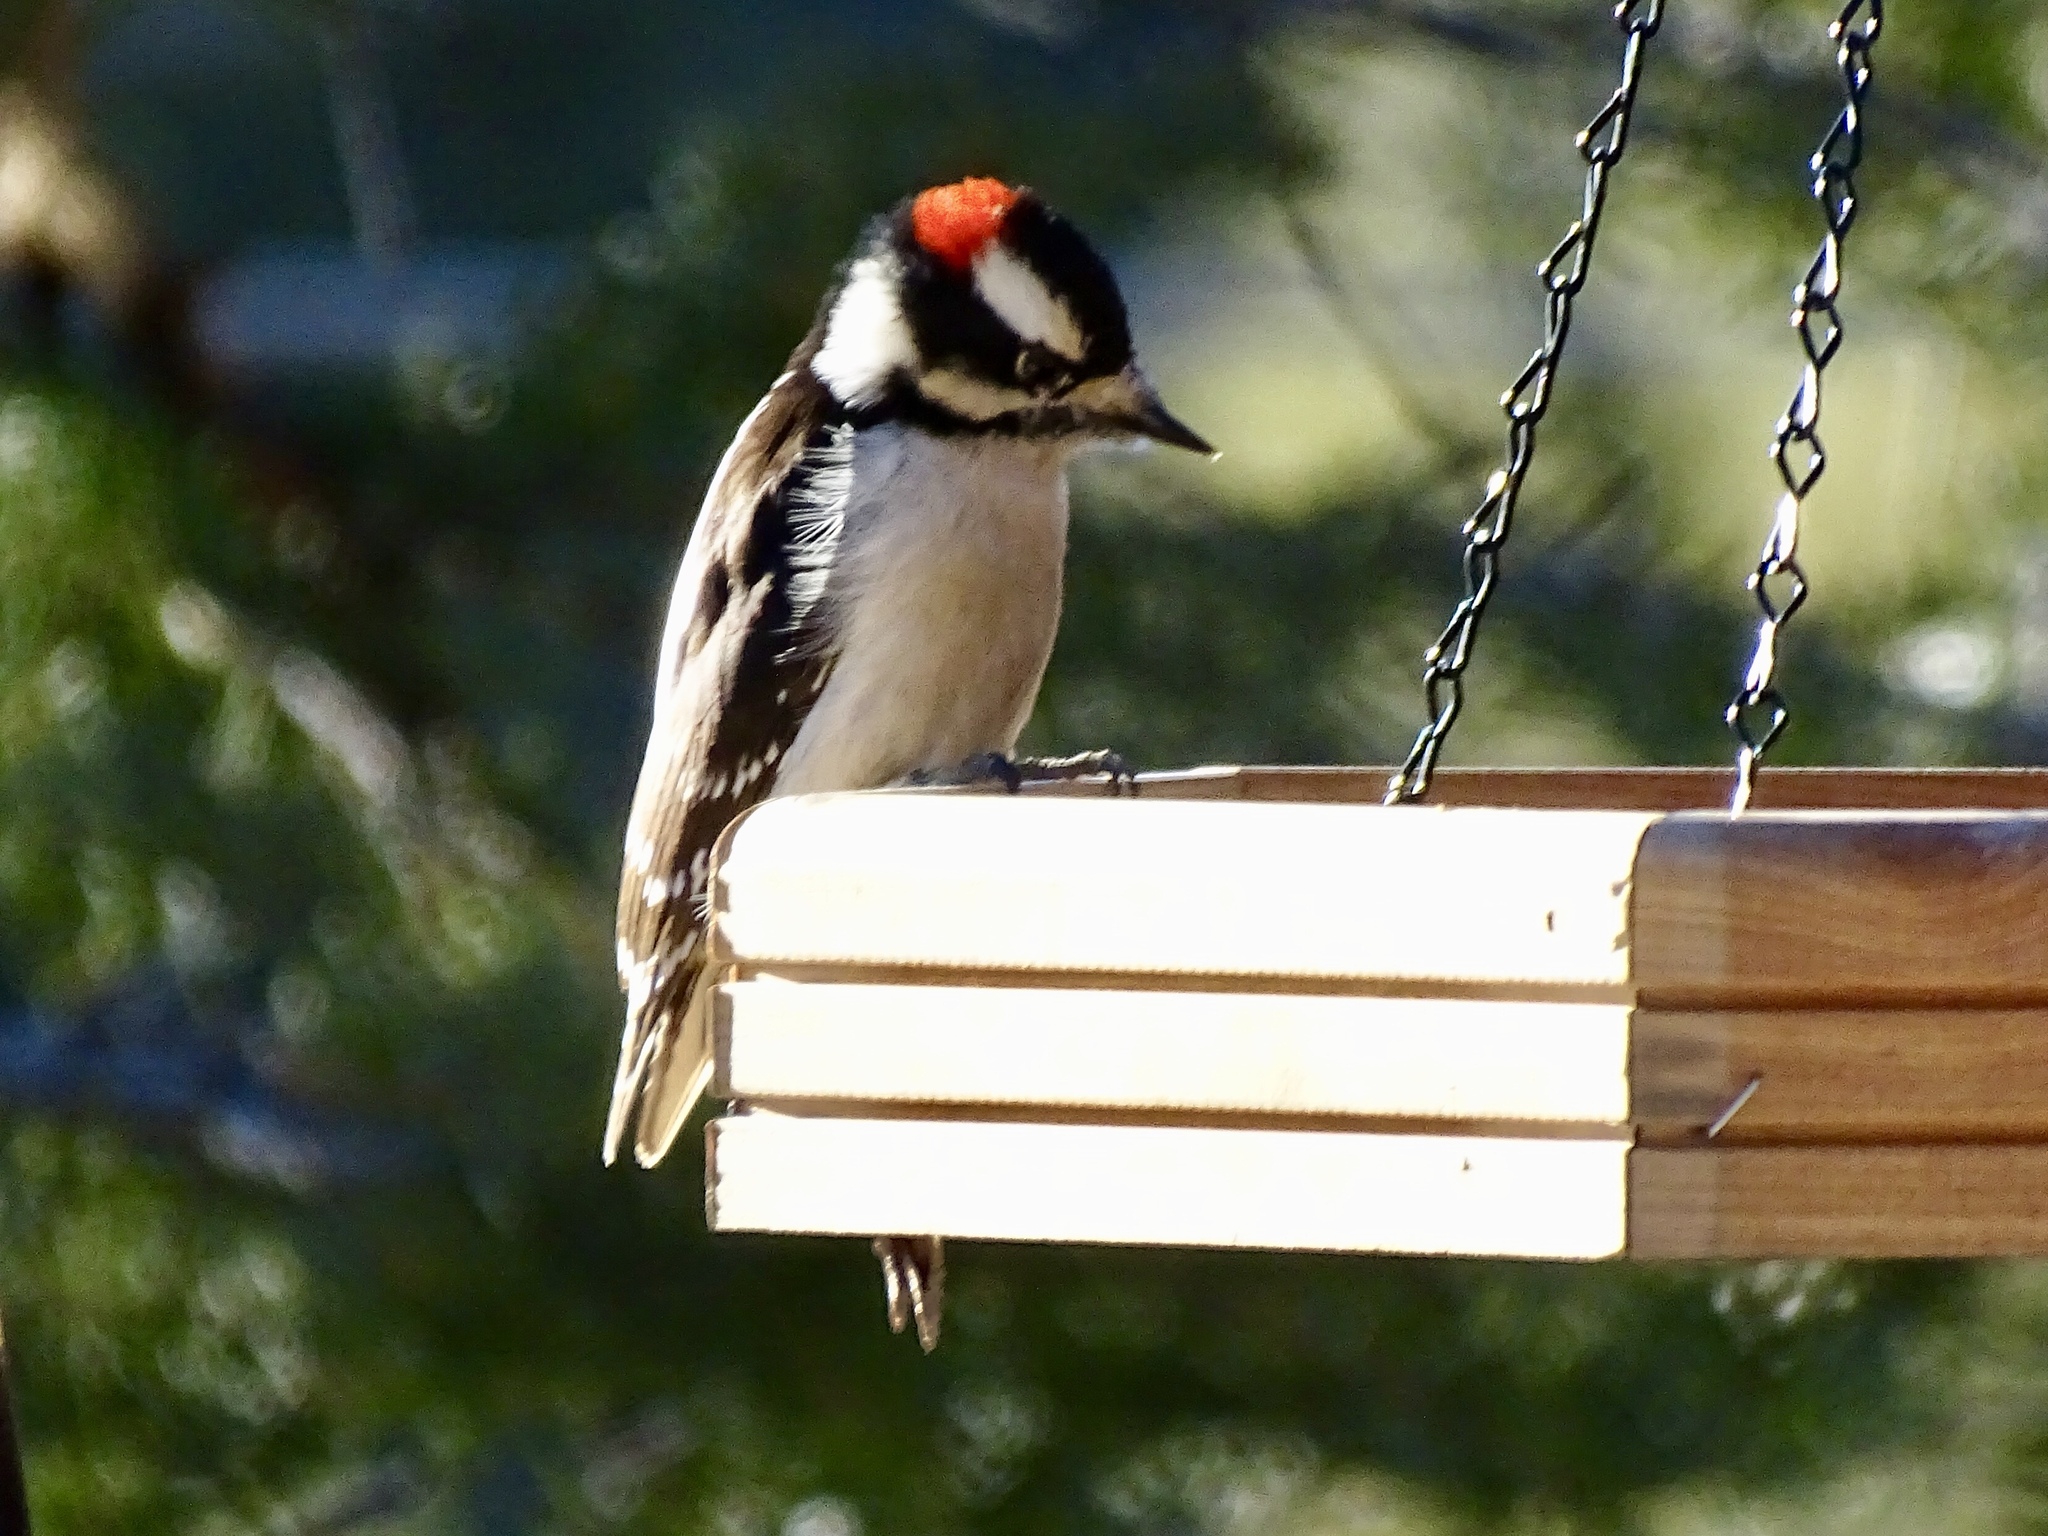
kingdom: Animalia
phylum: Chordata
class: Aves
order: Piciformes
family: Picidae
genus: Dryobates
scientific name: Dryobates pubescens
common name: Downy woodpecker
